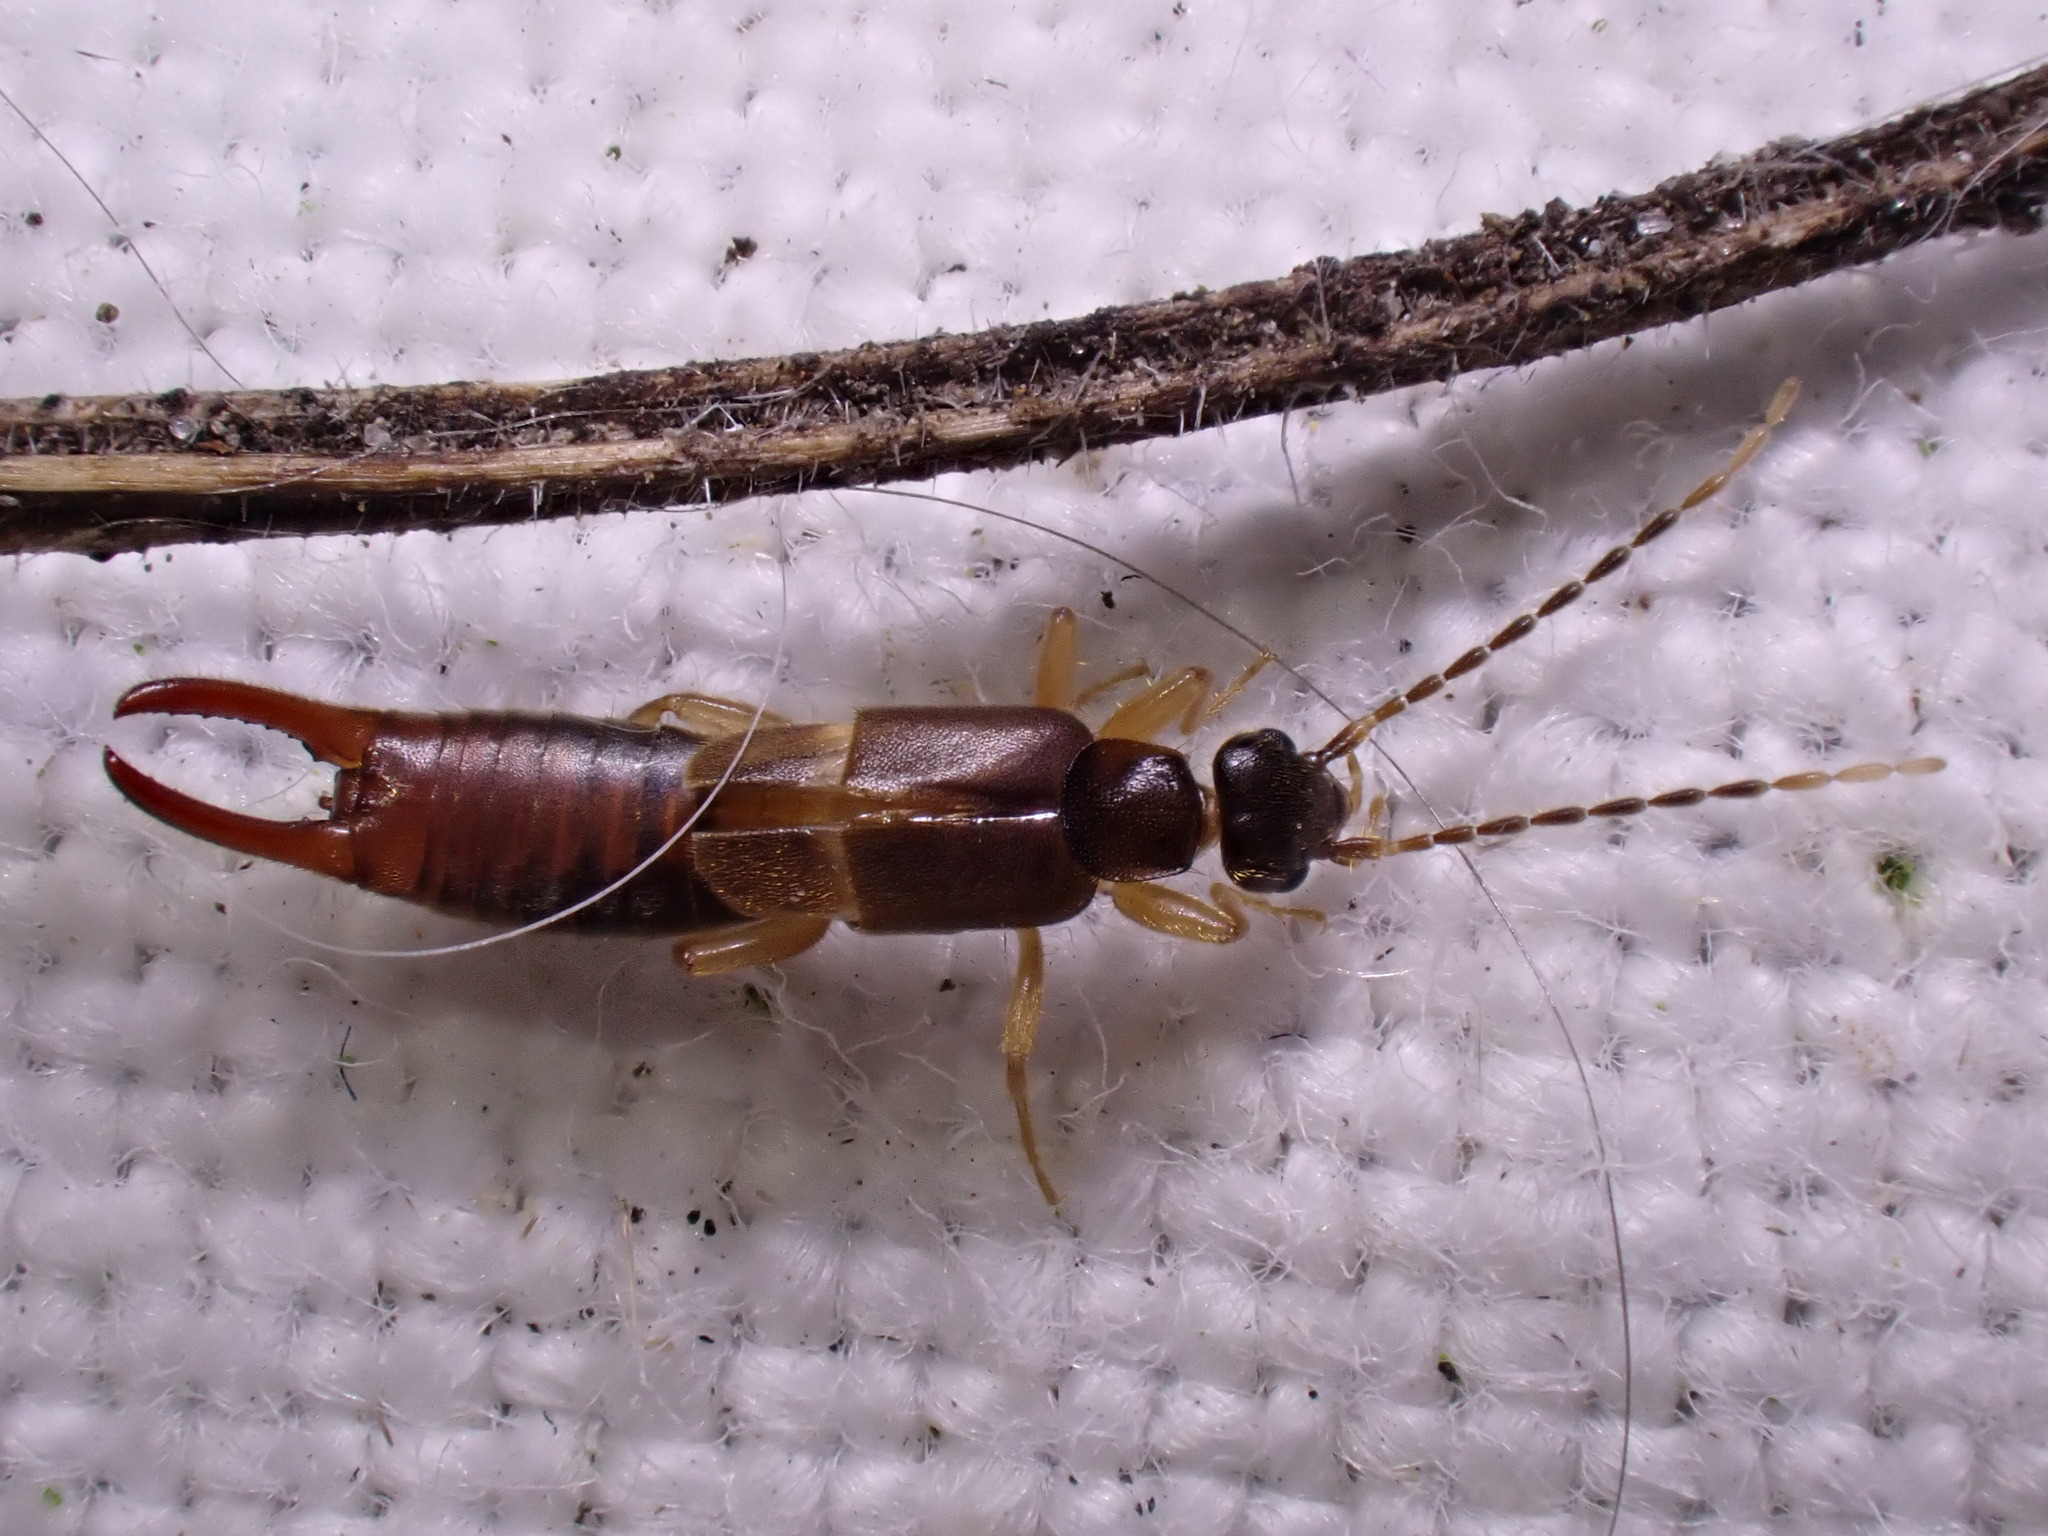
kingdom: Animalia
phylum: Arthropoda
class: Insecta
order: Dermaptera
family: Spongiphoridae
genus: Labia
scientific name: Labia minor
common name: Lesser earwig
